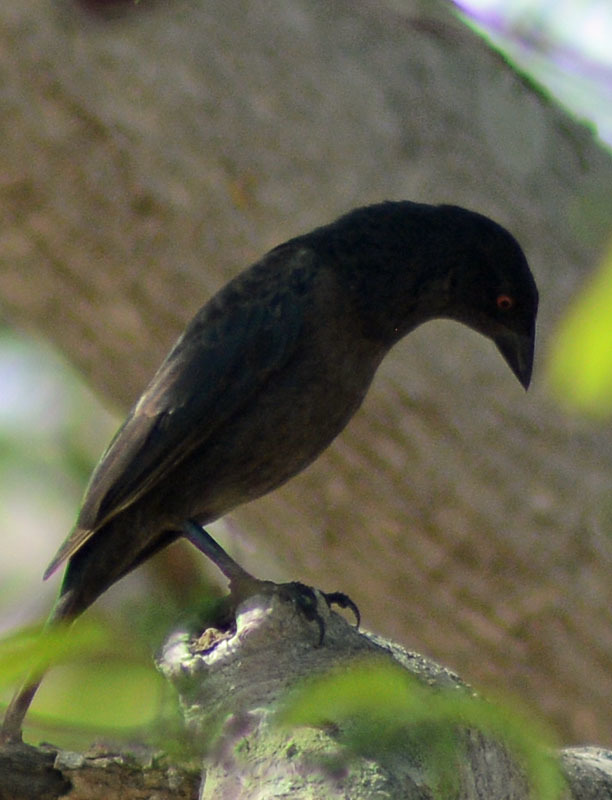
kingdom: Animalia
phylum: Chordata
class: Aves
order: Passeriformes
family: Icteridae
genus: Molothrus
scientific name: Molothrus aeneus
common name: Bronzed cowbird
